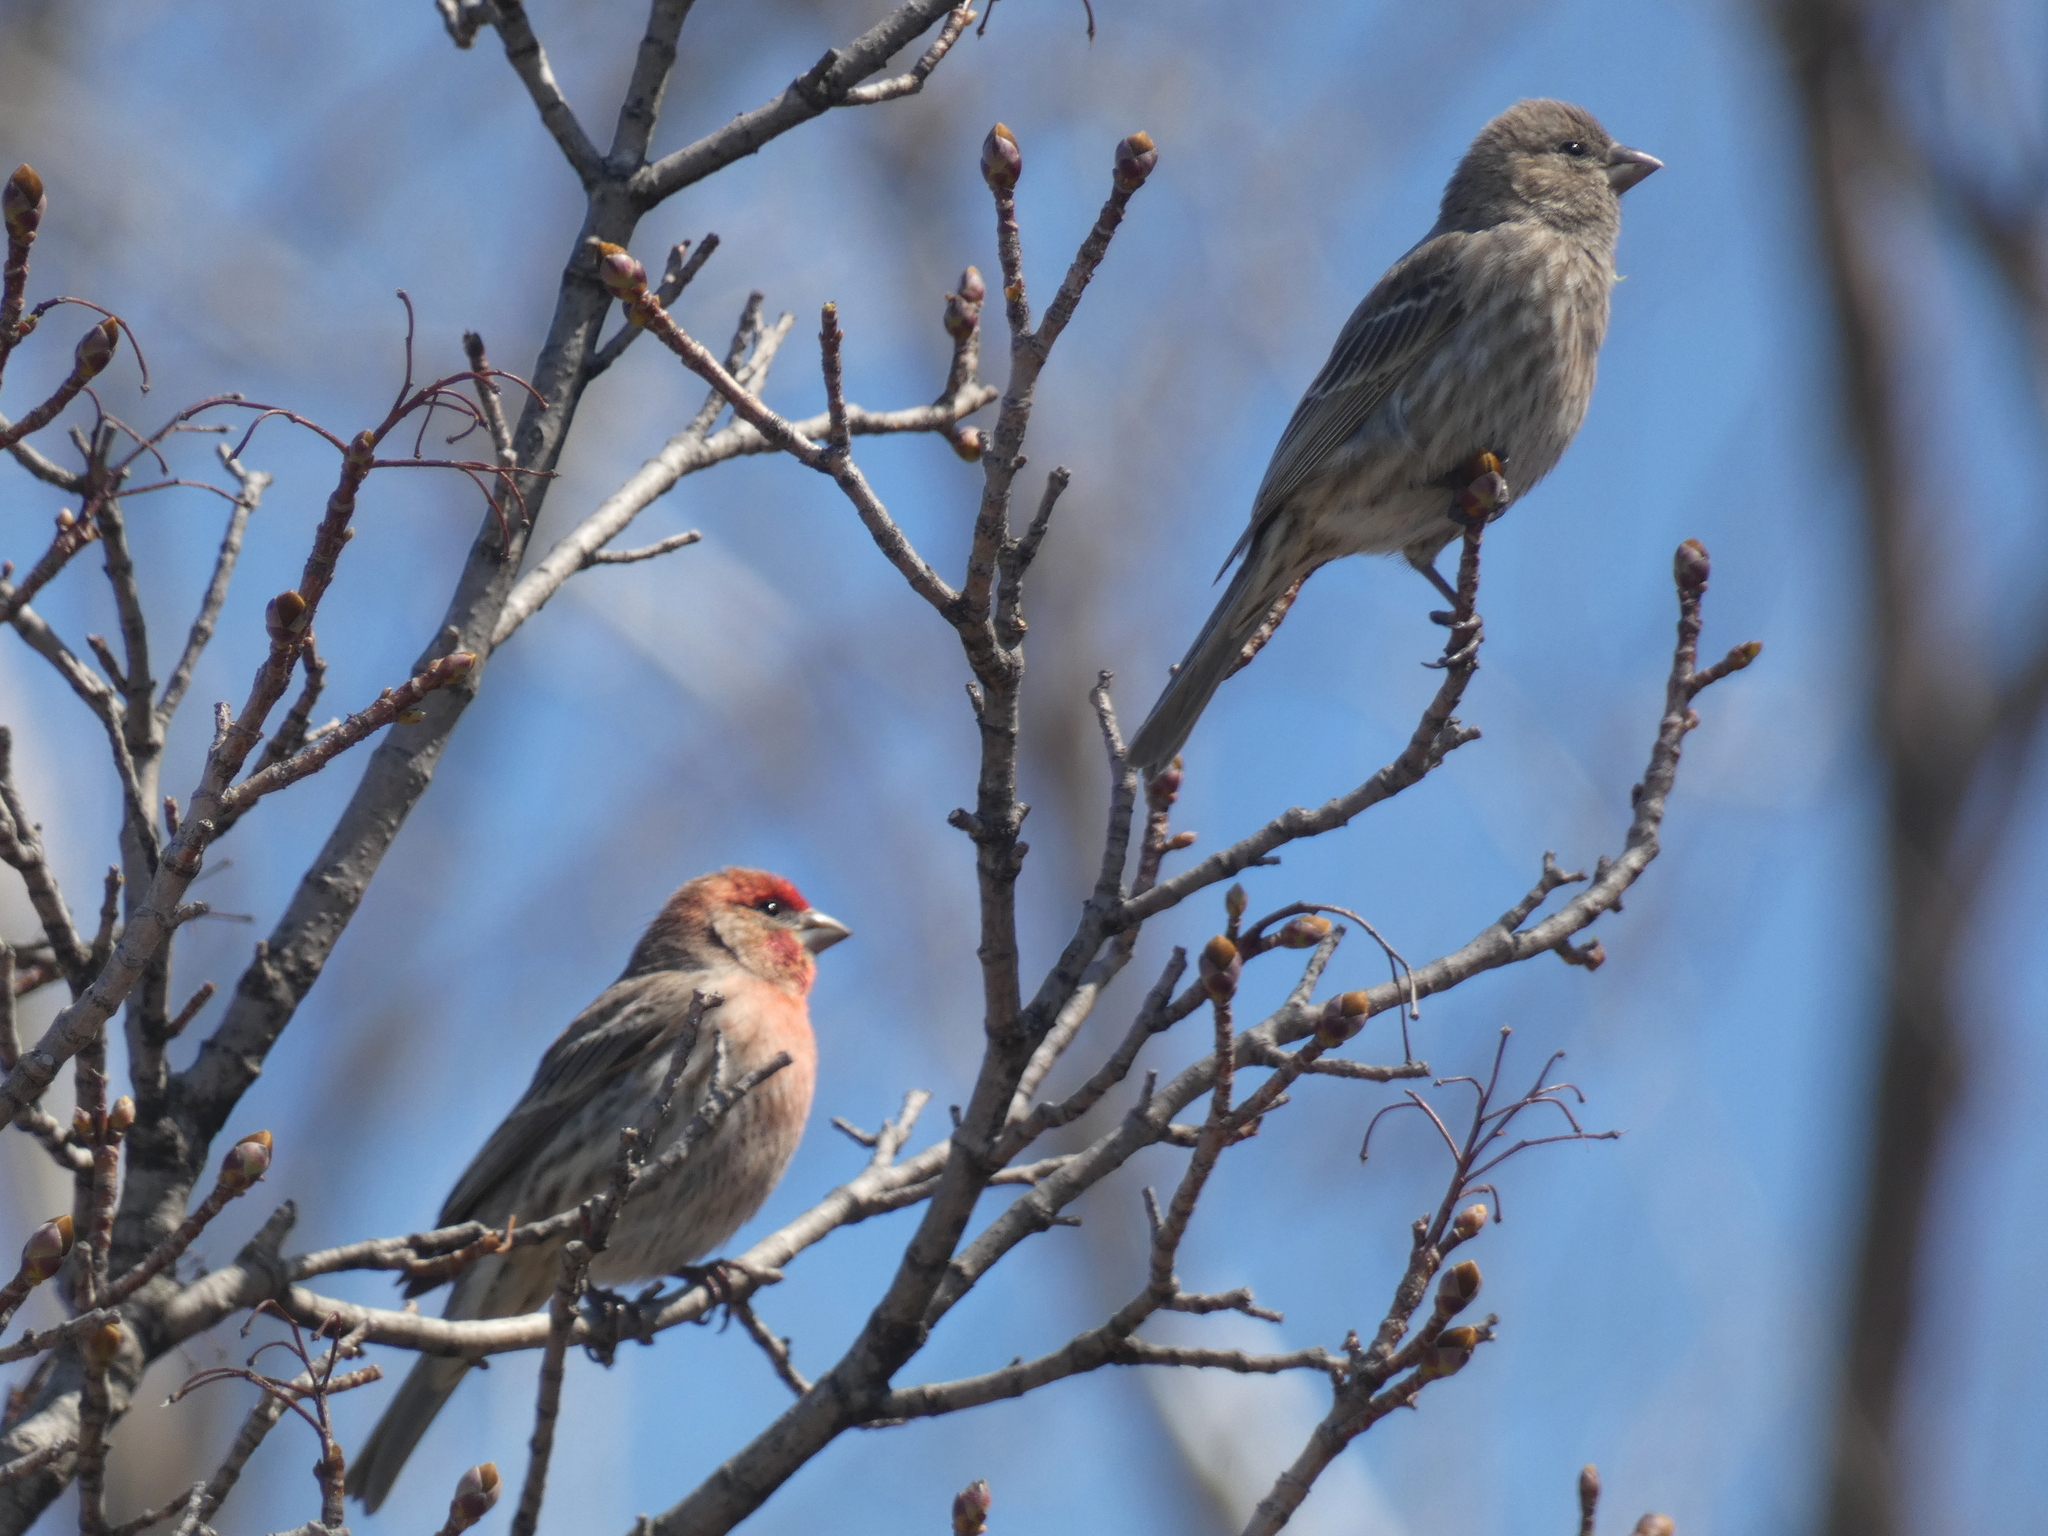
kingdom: Animalia
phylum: Chordata
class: Aves
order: Passeriformes
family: Fringillidae
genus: Haemorhous
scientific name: Haemorhous mexicanus
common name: House finch
